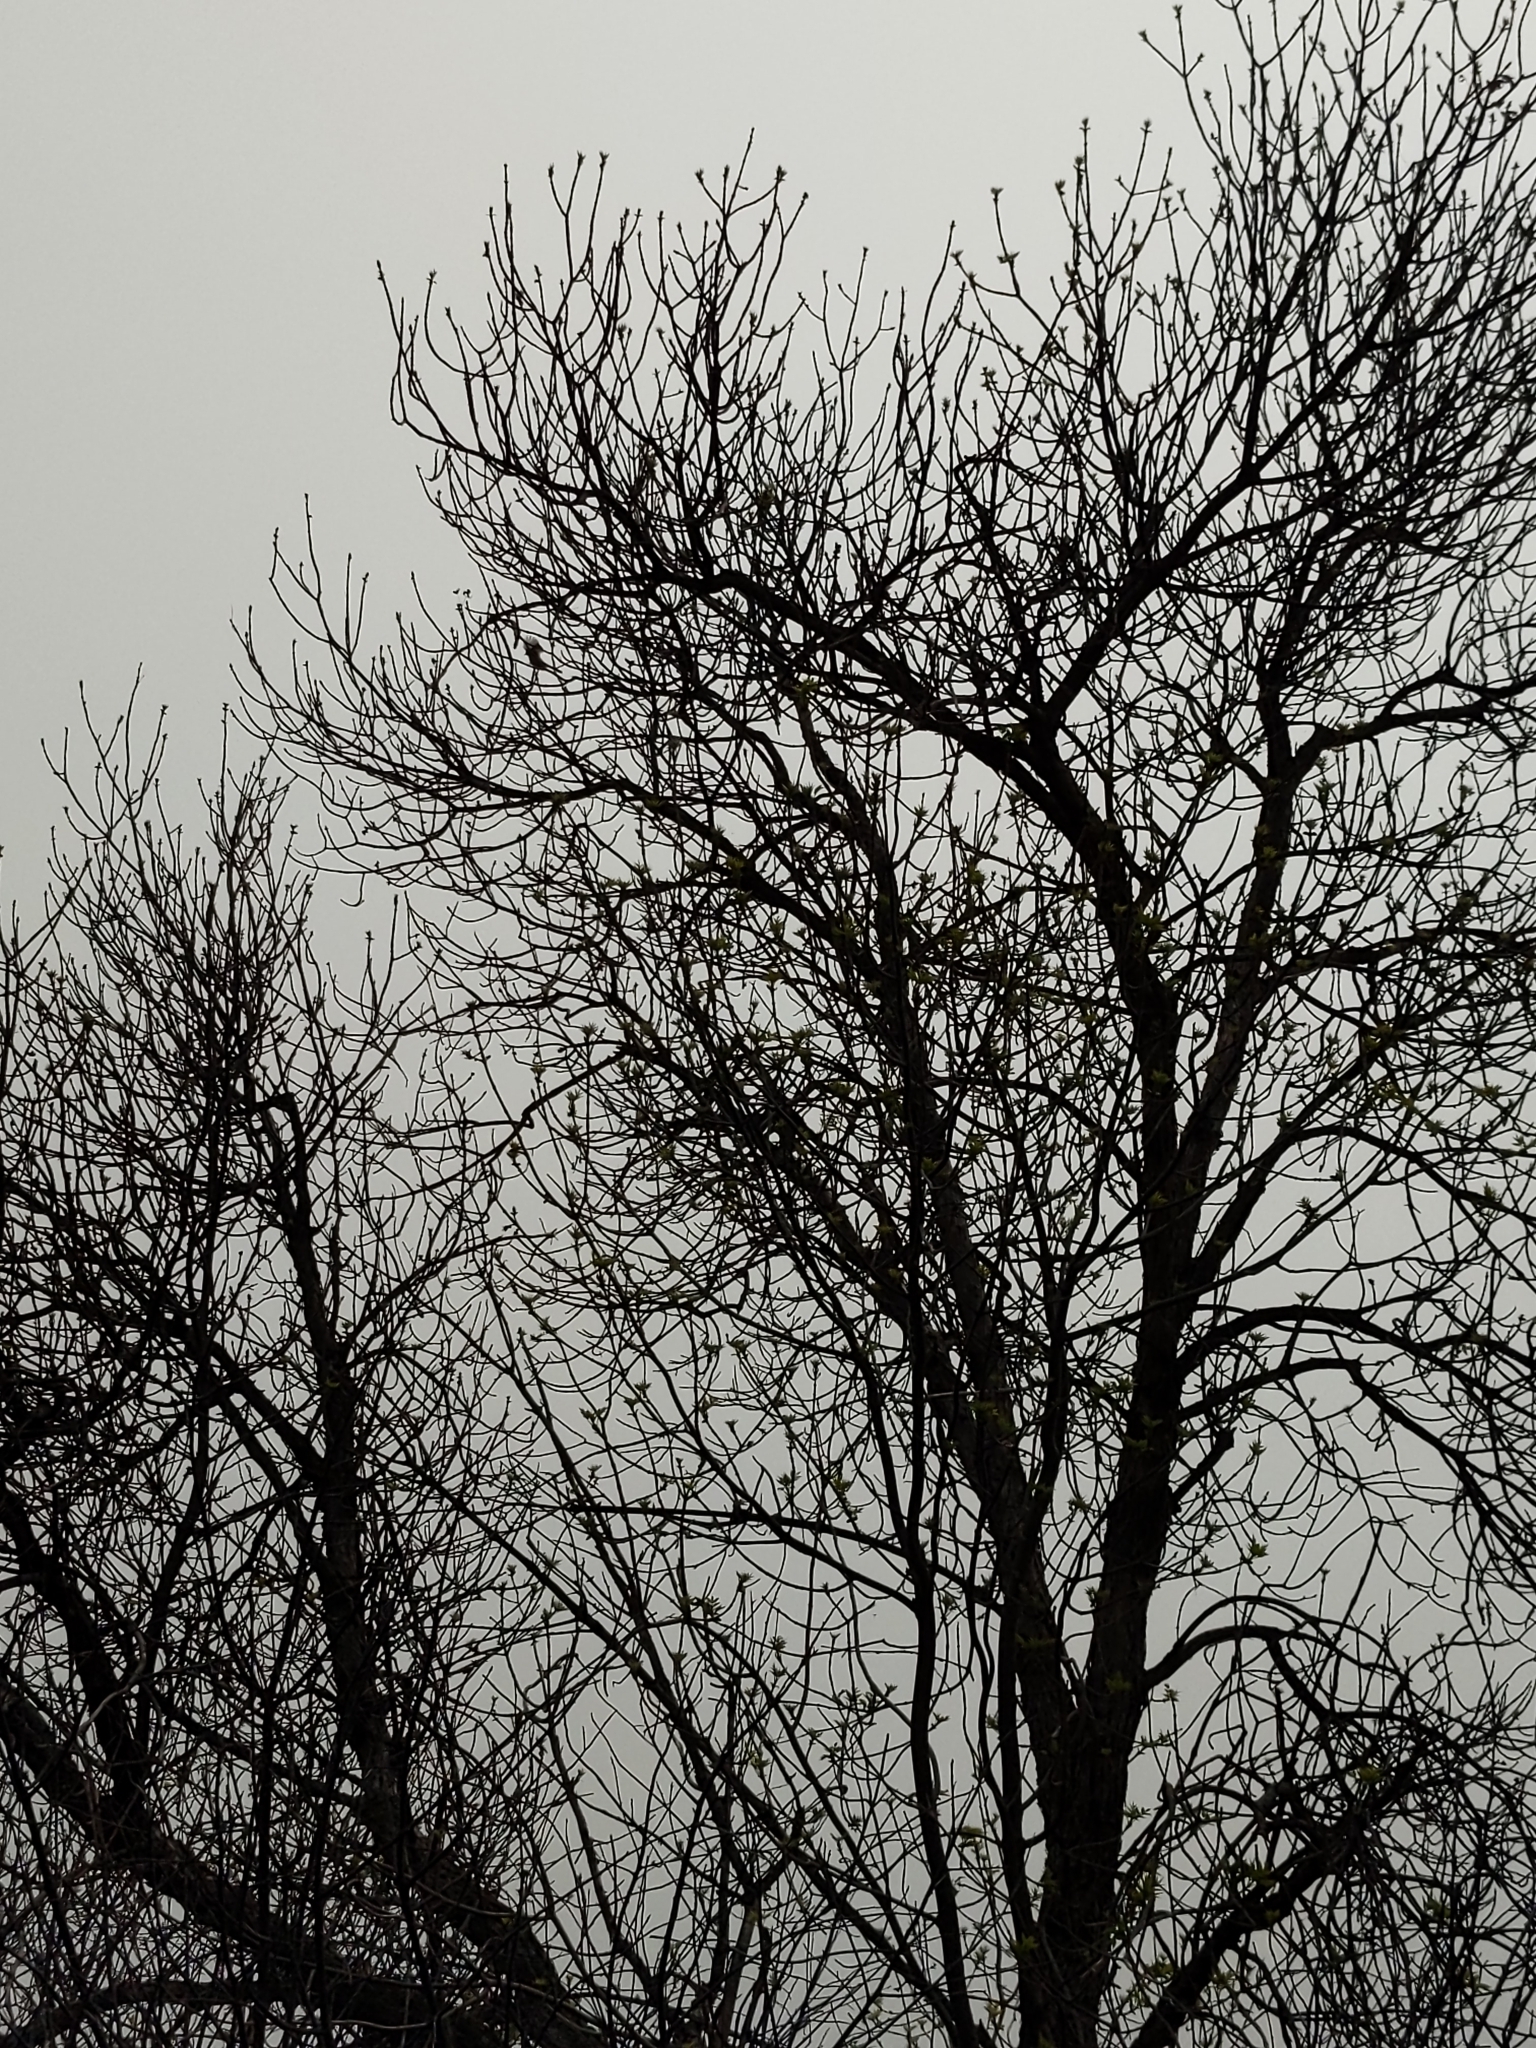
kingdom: Animalia
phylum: Chordata
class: Aves
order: Passeriformes
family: Paridae
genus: Poecile
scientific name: Poecile atricapillus
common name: Black-capped chickadee
